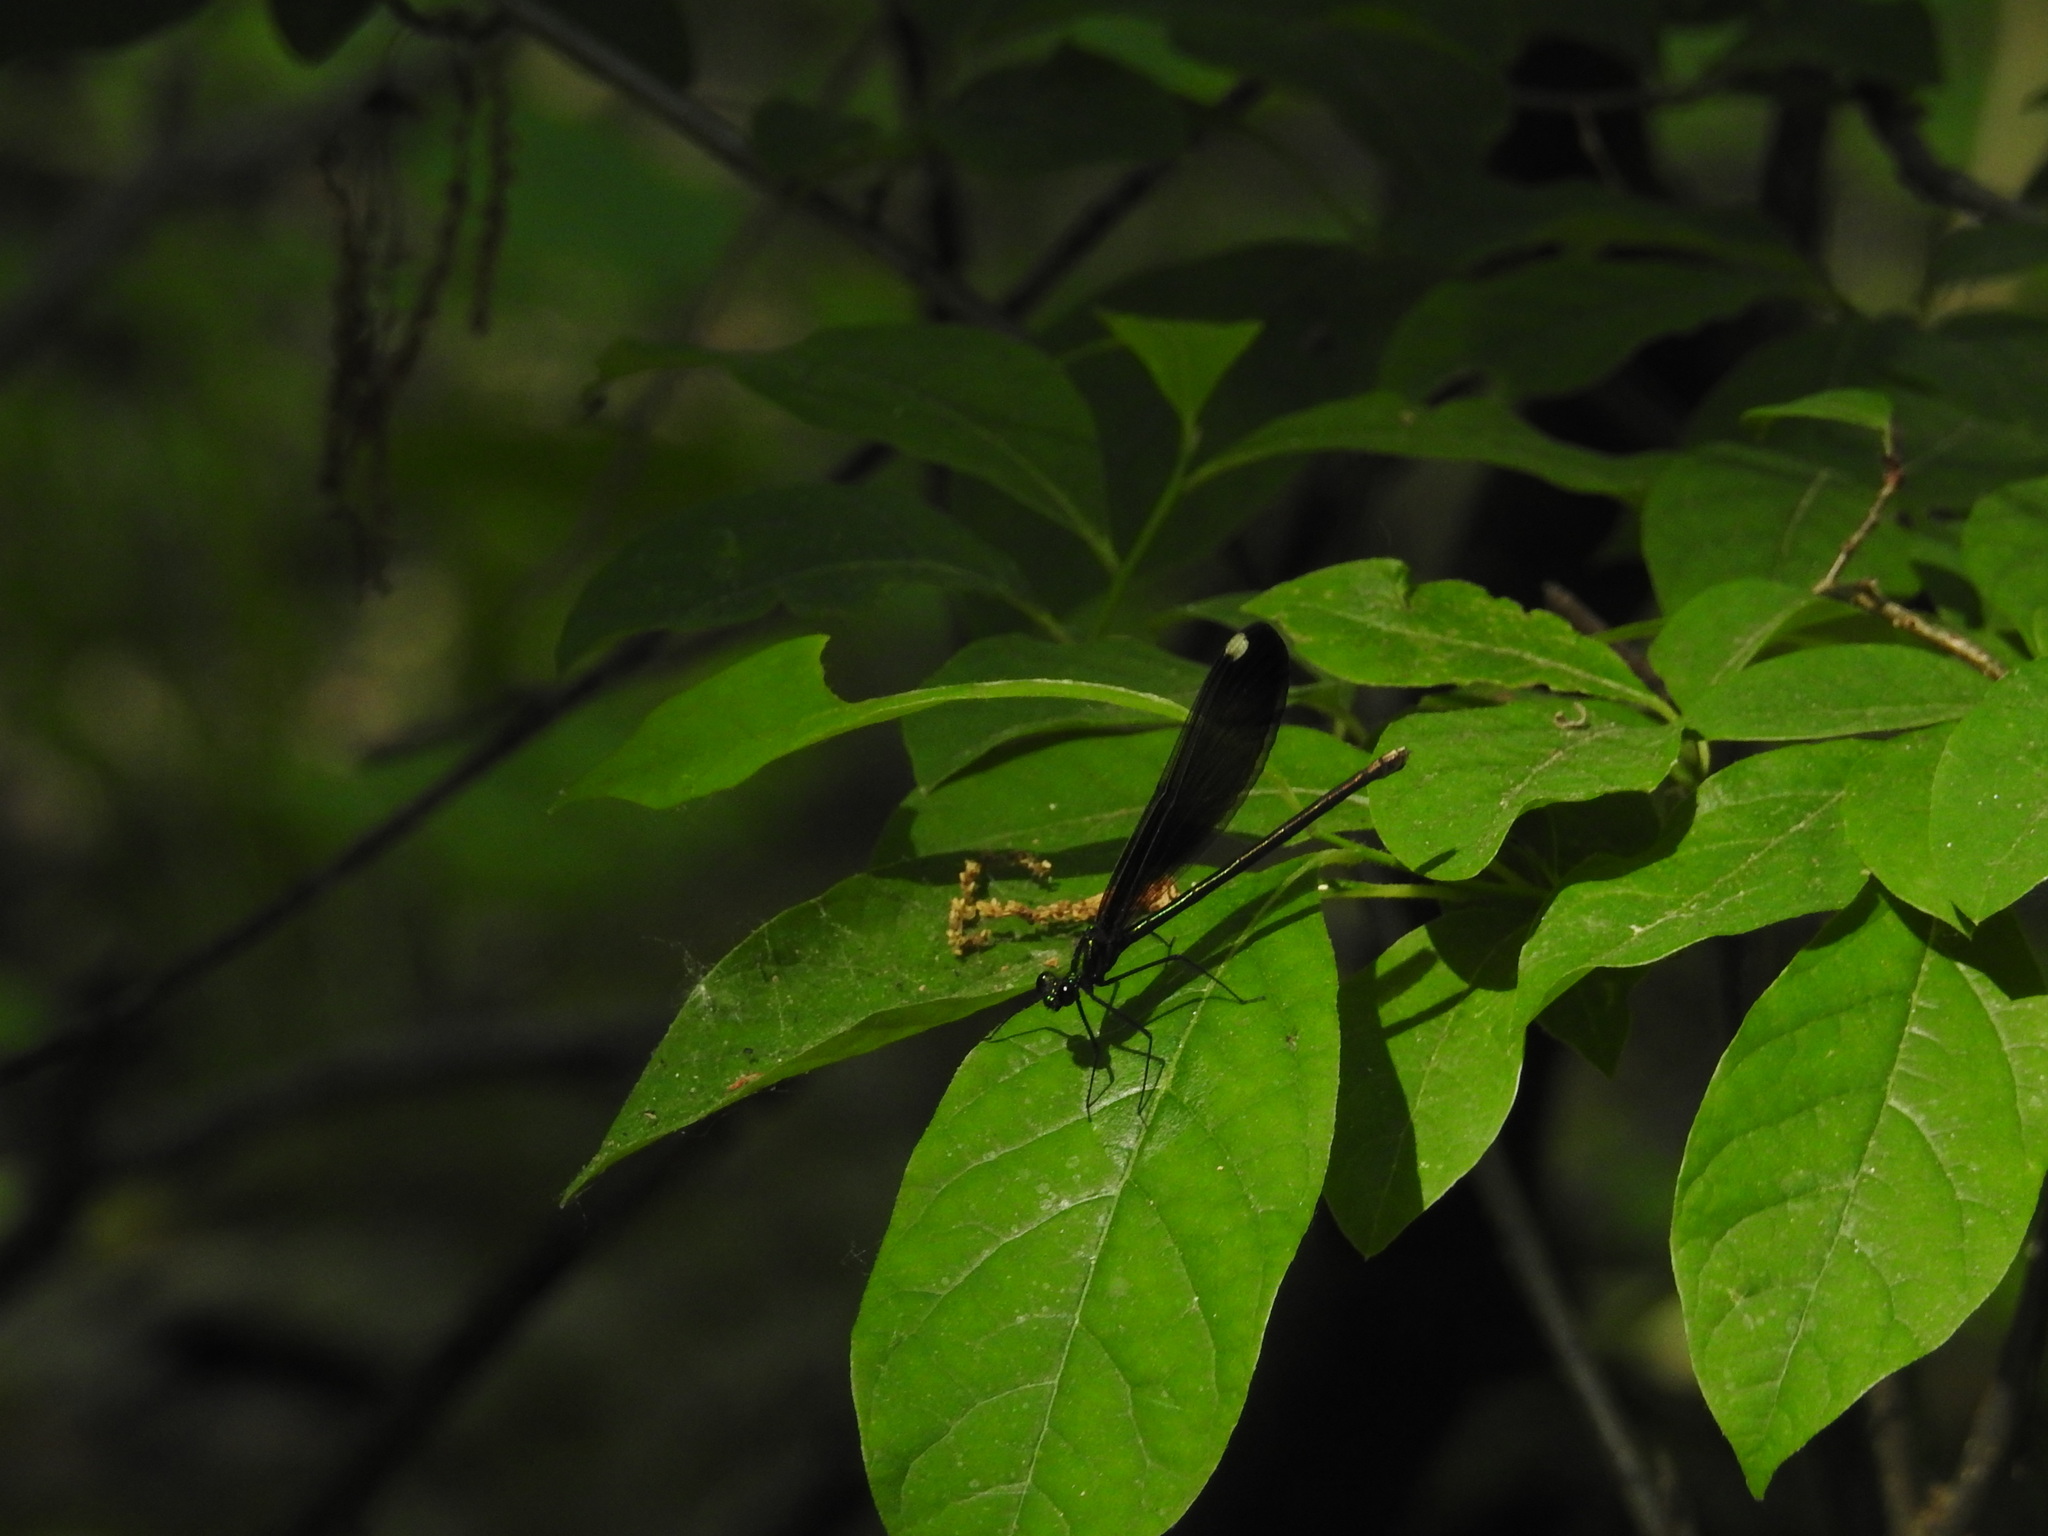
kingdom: Animalia
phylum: Arthropoda
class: Insecta
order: Odonata
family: Calopterygidae
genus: Calopteryx
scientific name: Calopteryx maculata
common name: Ebony jewelwing
